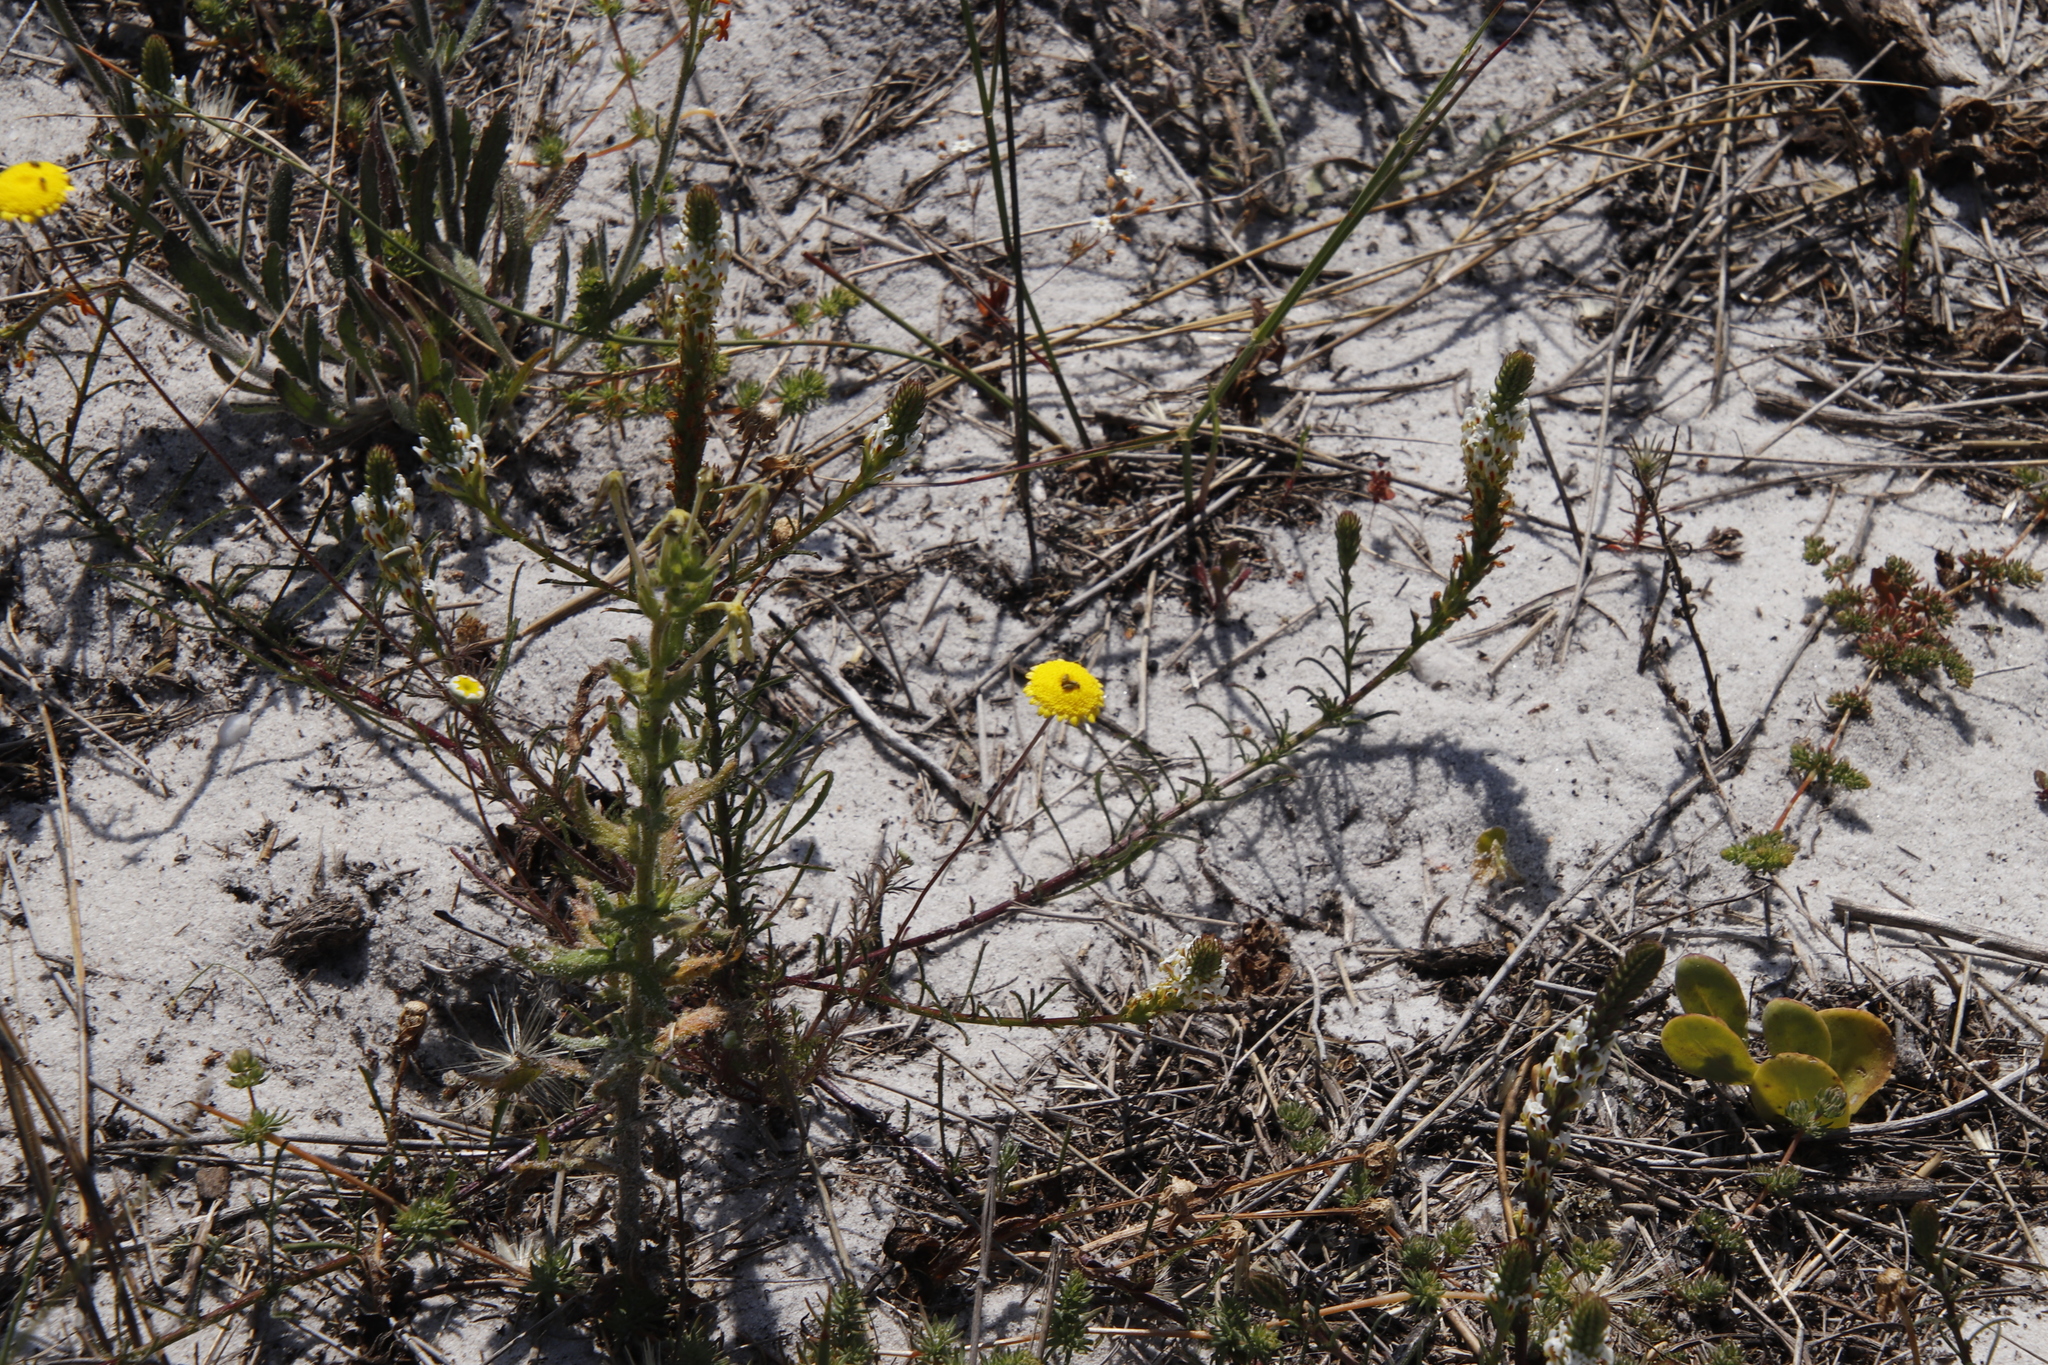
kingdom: Plantae
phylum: Tracheophyta
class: Magnoliopsida
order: Asterales
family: Asteraceae
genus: Cotula
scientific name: Cotula pruinosa
